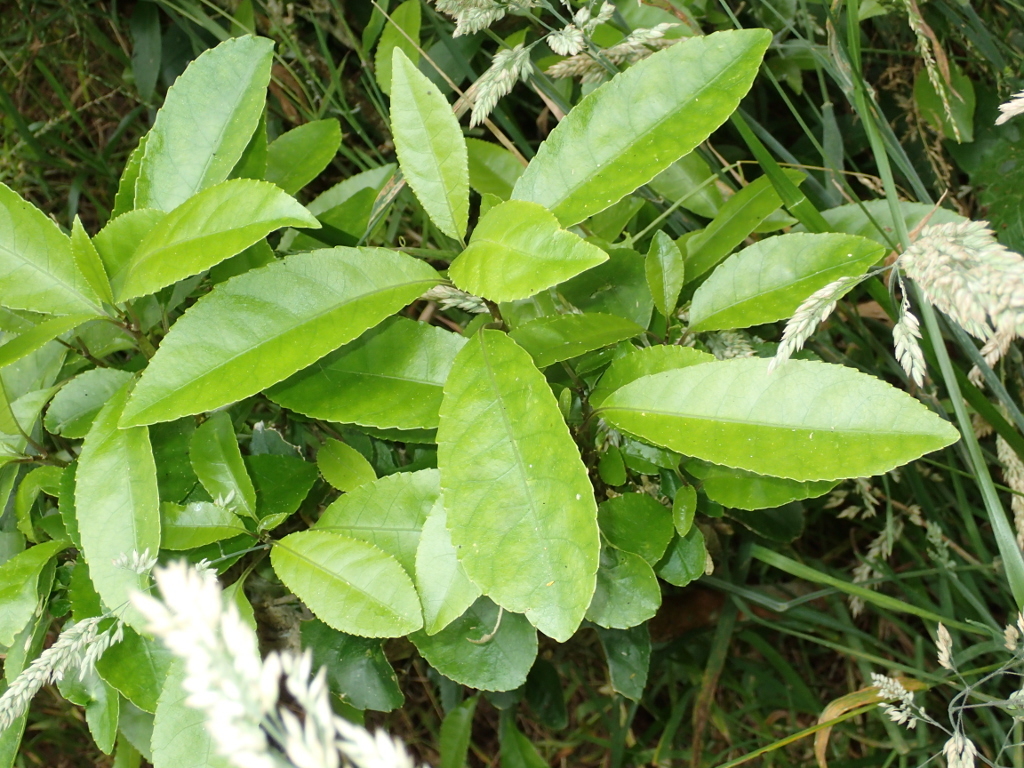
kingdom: Plantae
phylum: Tracheophyta
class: Magnoliopsida
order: Malpighiales
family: Violaceae
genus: Melicytus
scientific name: Melicytus ramiflorus
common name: Mahoe
